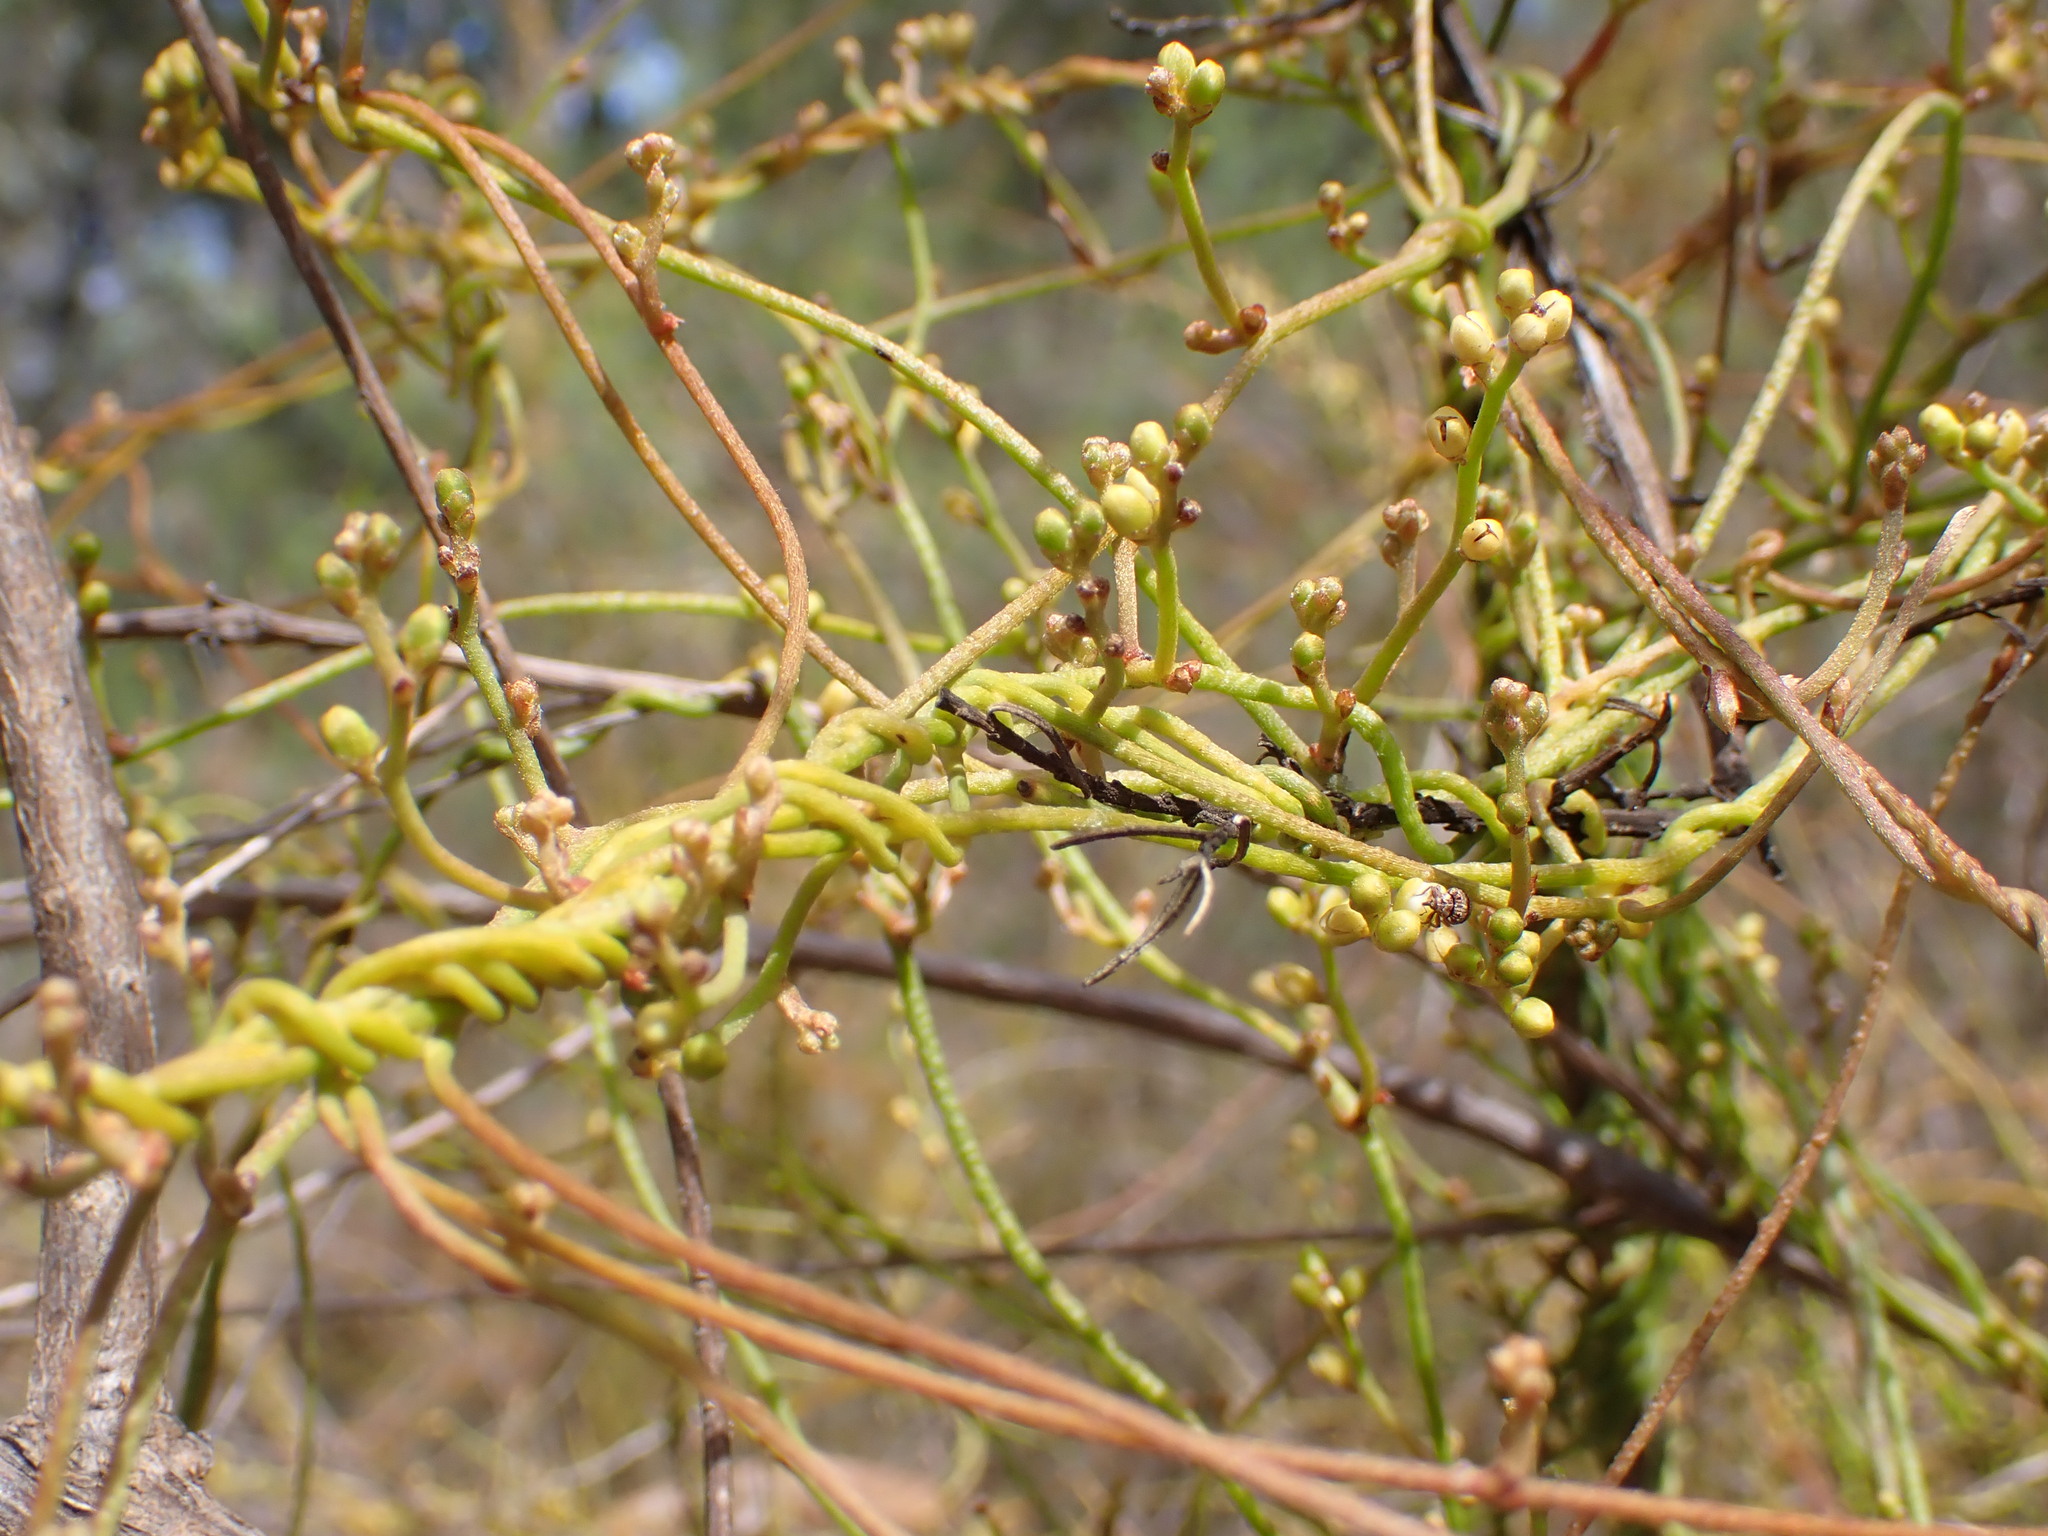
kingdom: Plantae
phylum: Tracheophyta
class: Magnoliopsida
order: Laurales
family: Lauraceae
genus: Cassytha
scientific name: Cassytha pubescens
